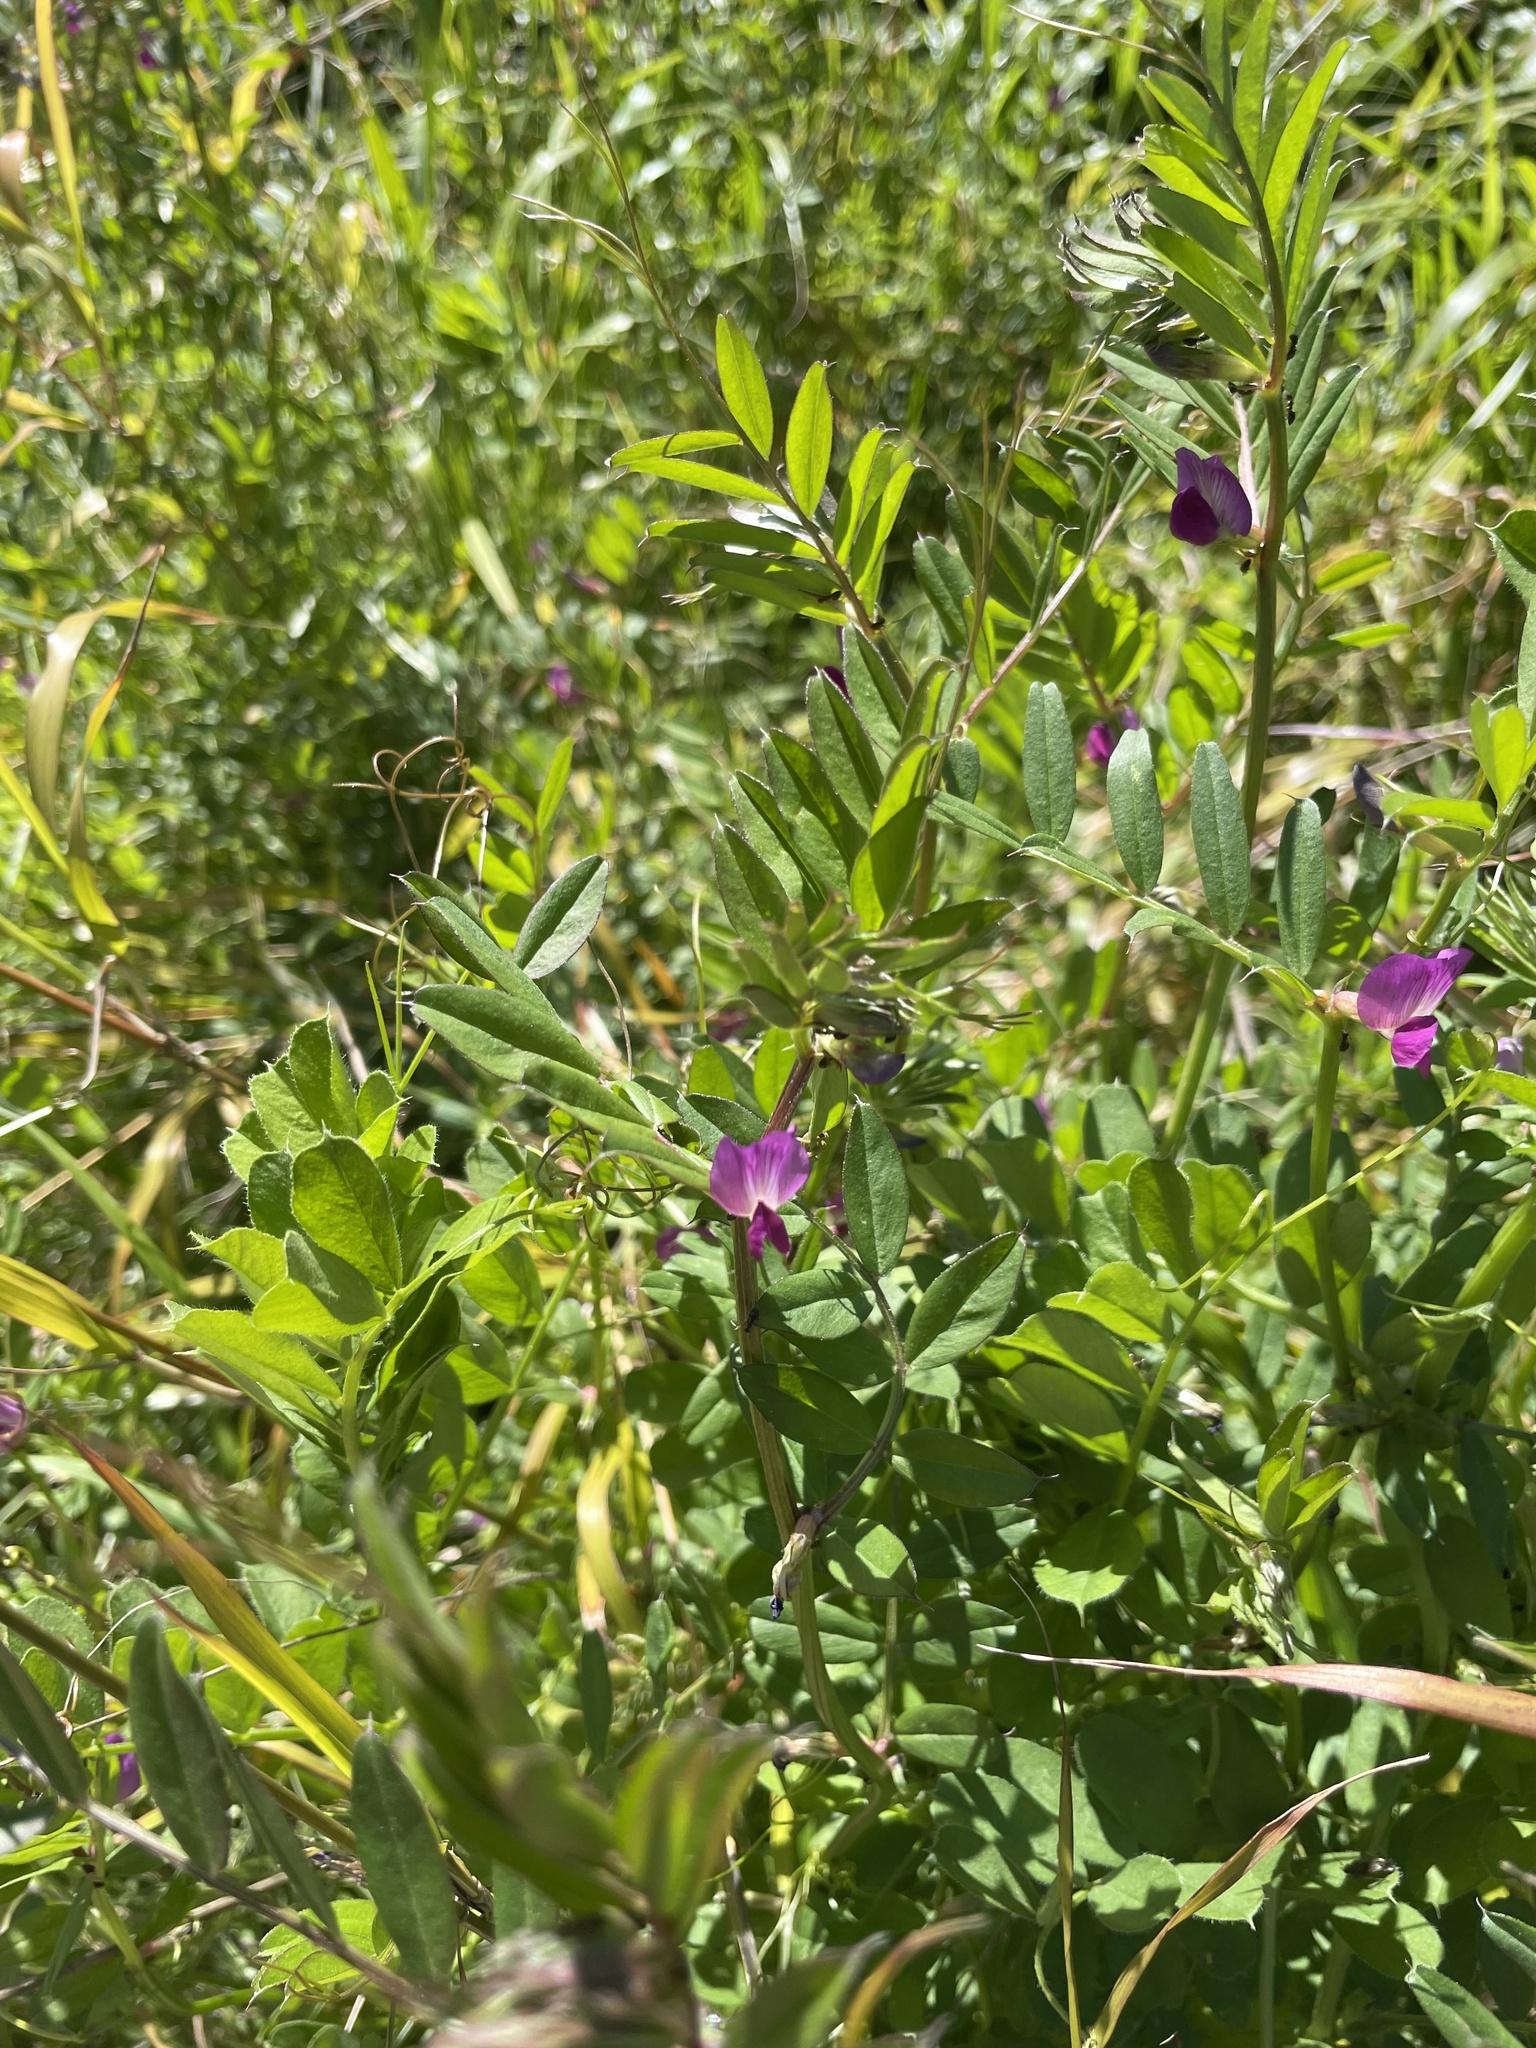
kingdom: Plantae
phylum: Tracheophyta
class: Magnoliopsida
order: Fabales
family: Fabaceae
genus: Vicia
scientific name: Vicia sativa
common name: Garden vetch
